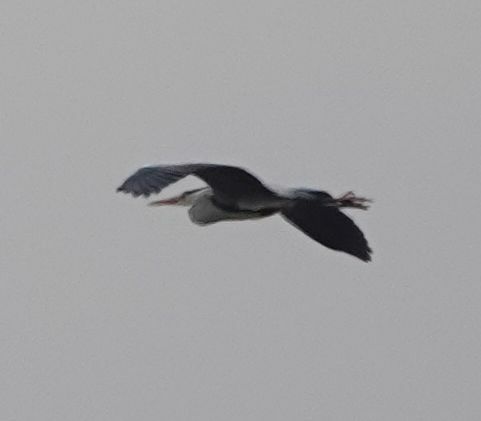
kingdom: Animalia
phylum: Chordata
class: Aves
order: Pelecaniformes
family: Ardeidae
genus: Ardea
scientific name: Ardea cinerea
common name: Grey heron
